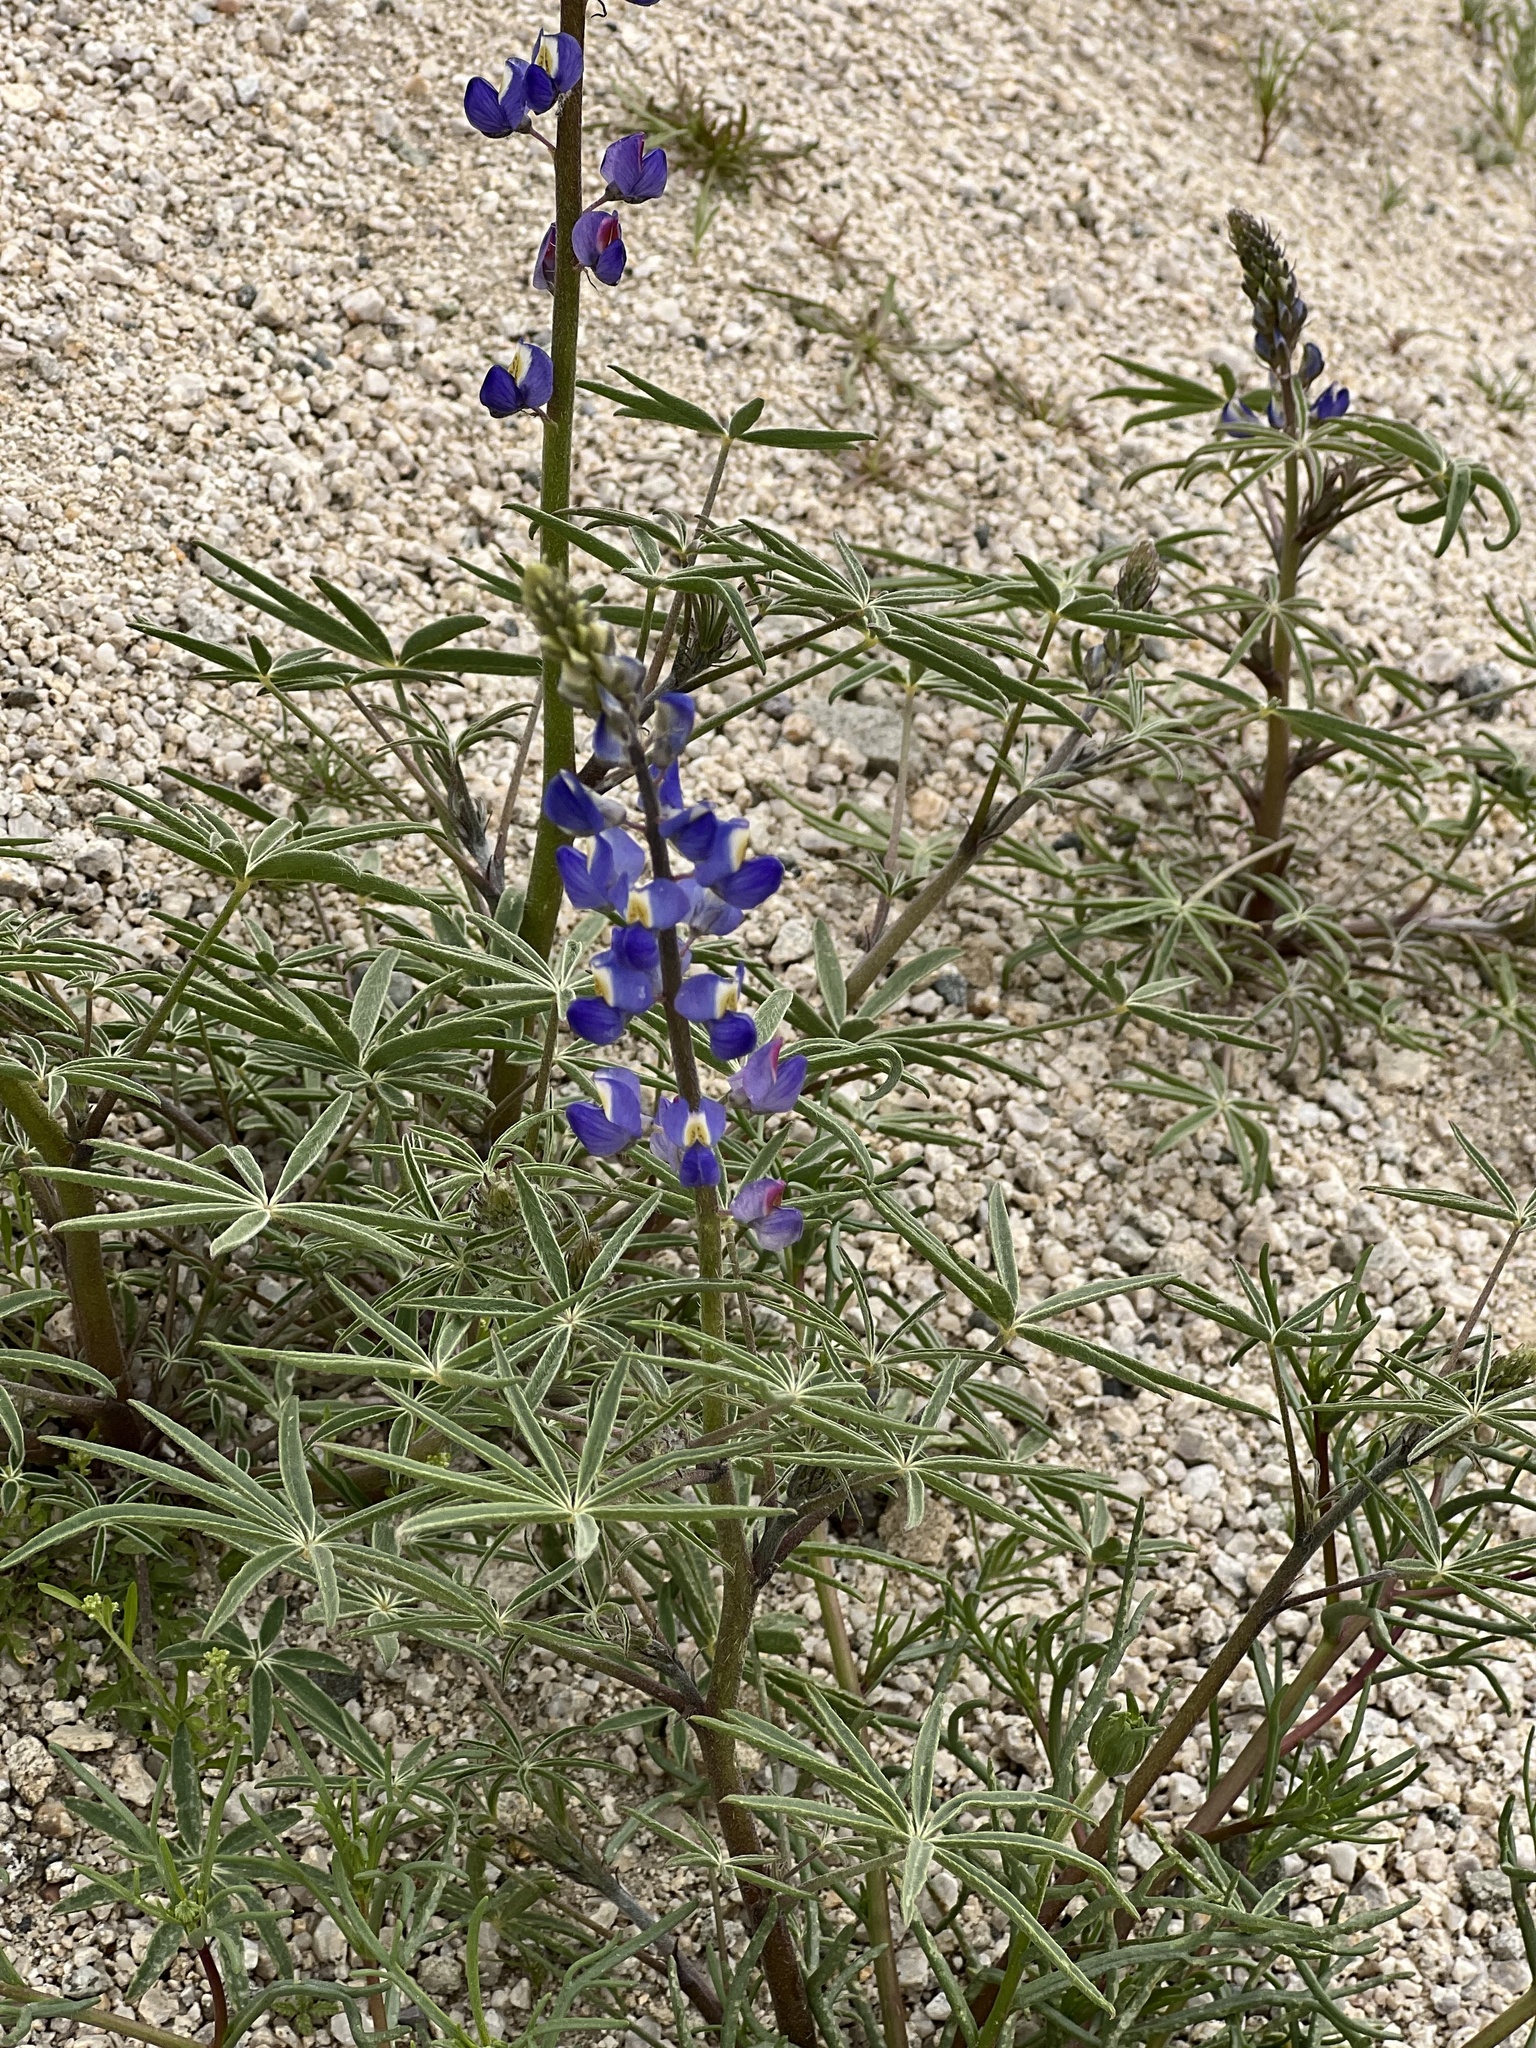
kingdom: Plantae
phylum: Tracheophyta
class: Magnoliopsida
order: Fabales
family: Fabaceae
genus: Lupinus
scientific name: Lupinus sparsiflorus
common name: Coulter's lupine
